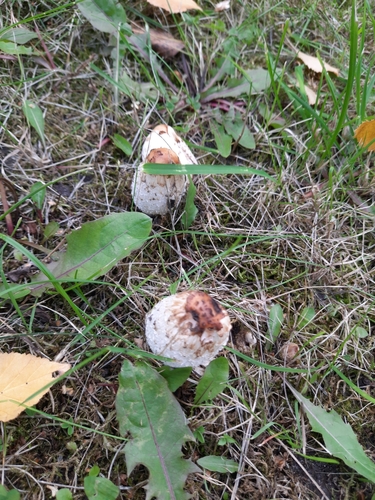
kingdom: Fungi
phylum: Basidiomycota
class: Agaricomycetes
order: Agaricales
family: Agaricaceae
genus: Coprinus
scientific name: Coprinus comatus
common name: Lawyer's wig
